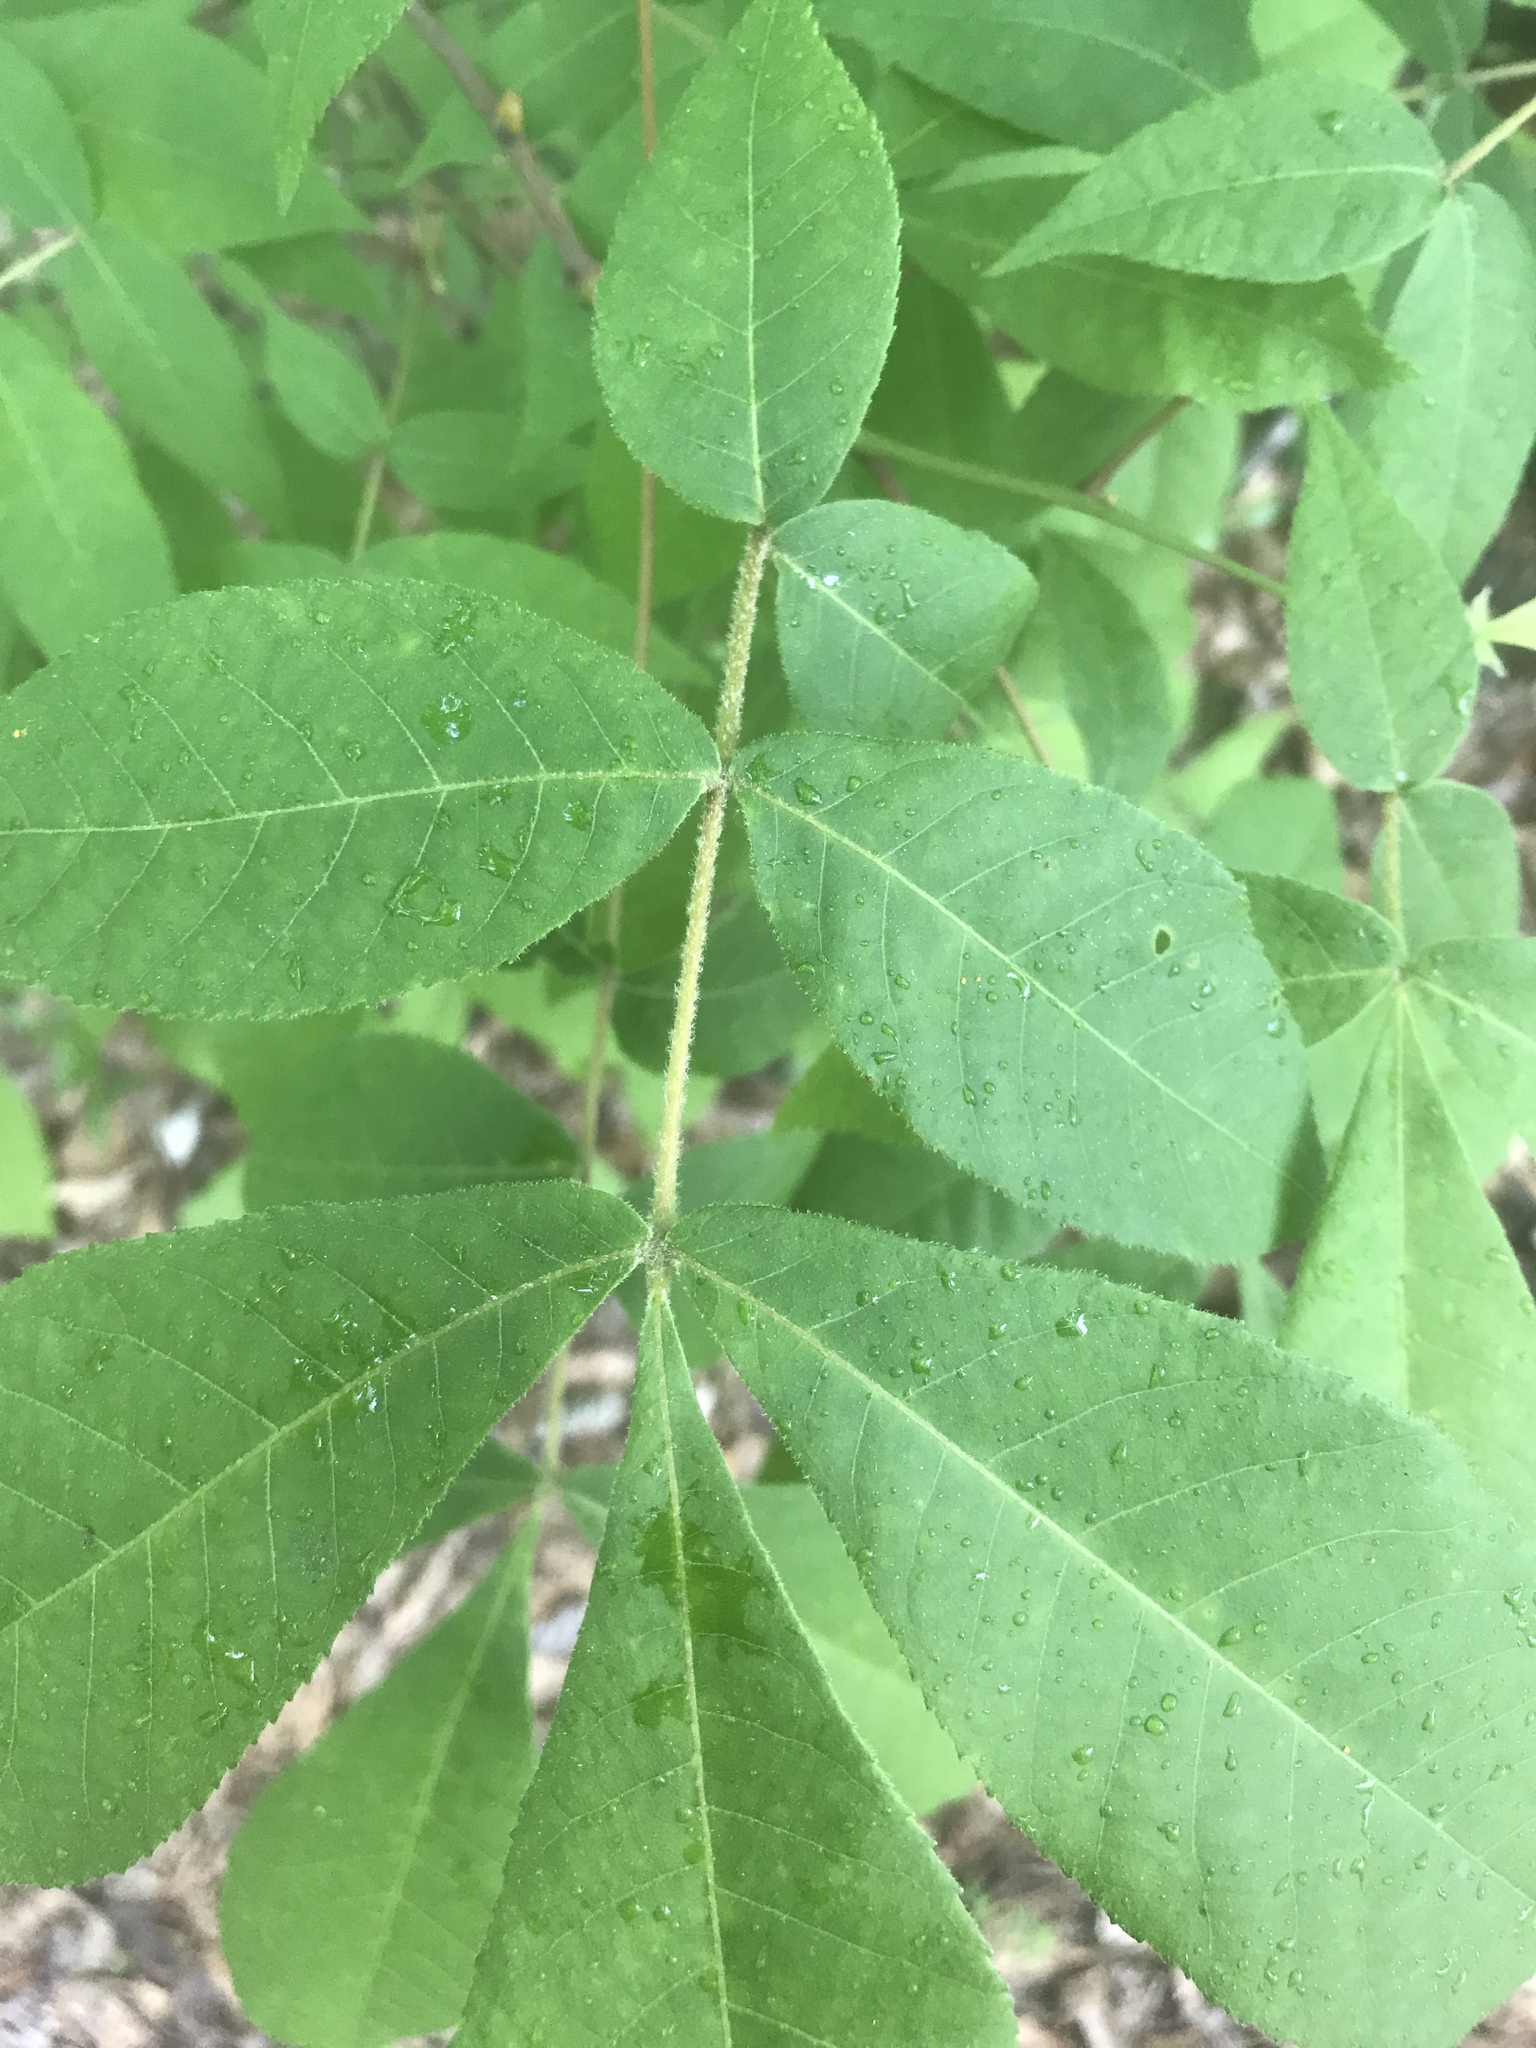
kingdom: Plantae
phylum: Tracheophyta
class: Magnoliopsida
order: Fagales
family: Juglandaceae
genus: Carya
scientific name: Carya pallida
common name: Sand hickory
